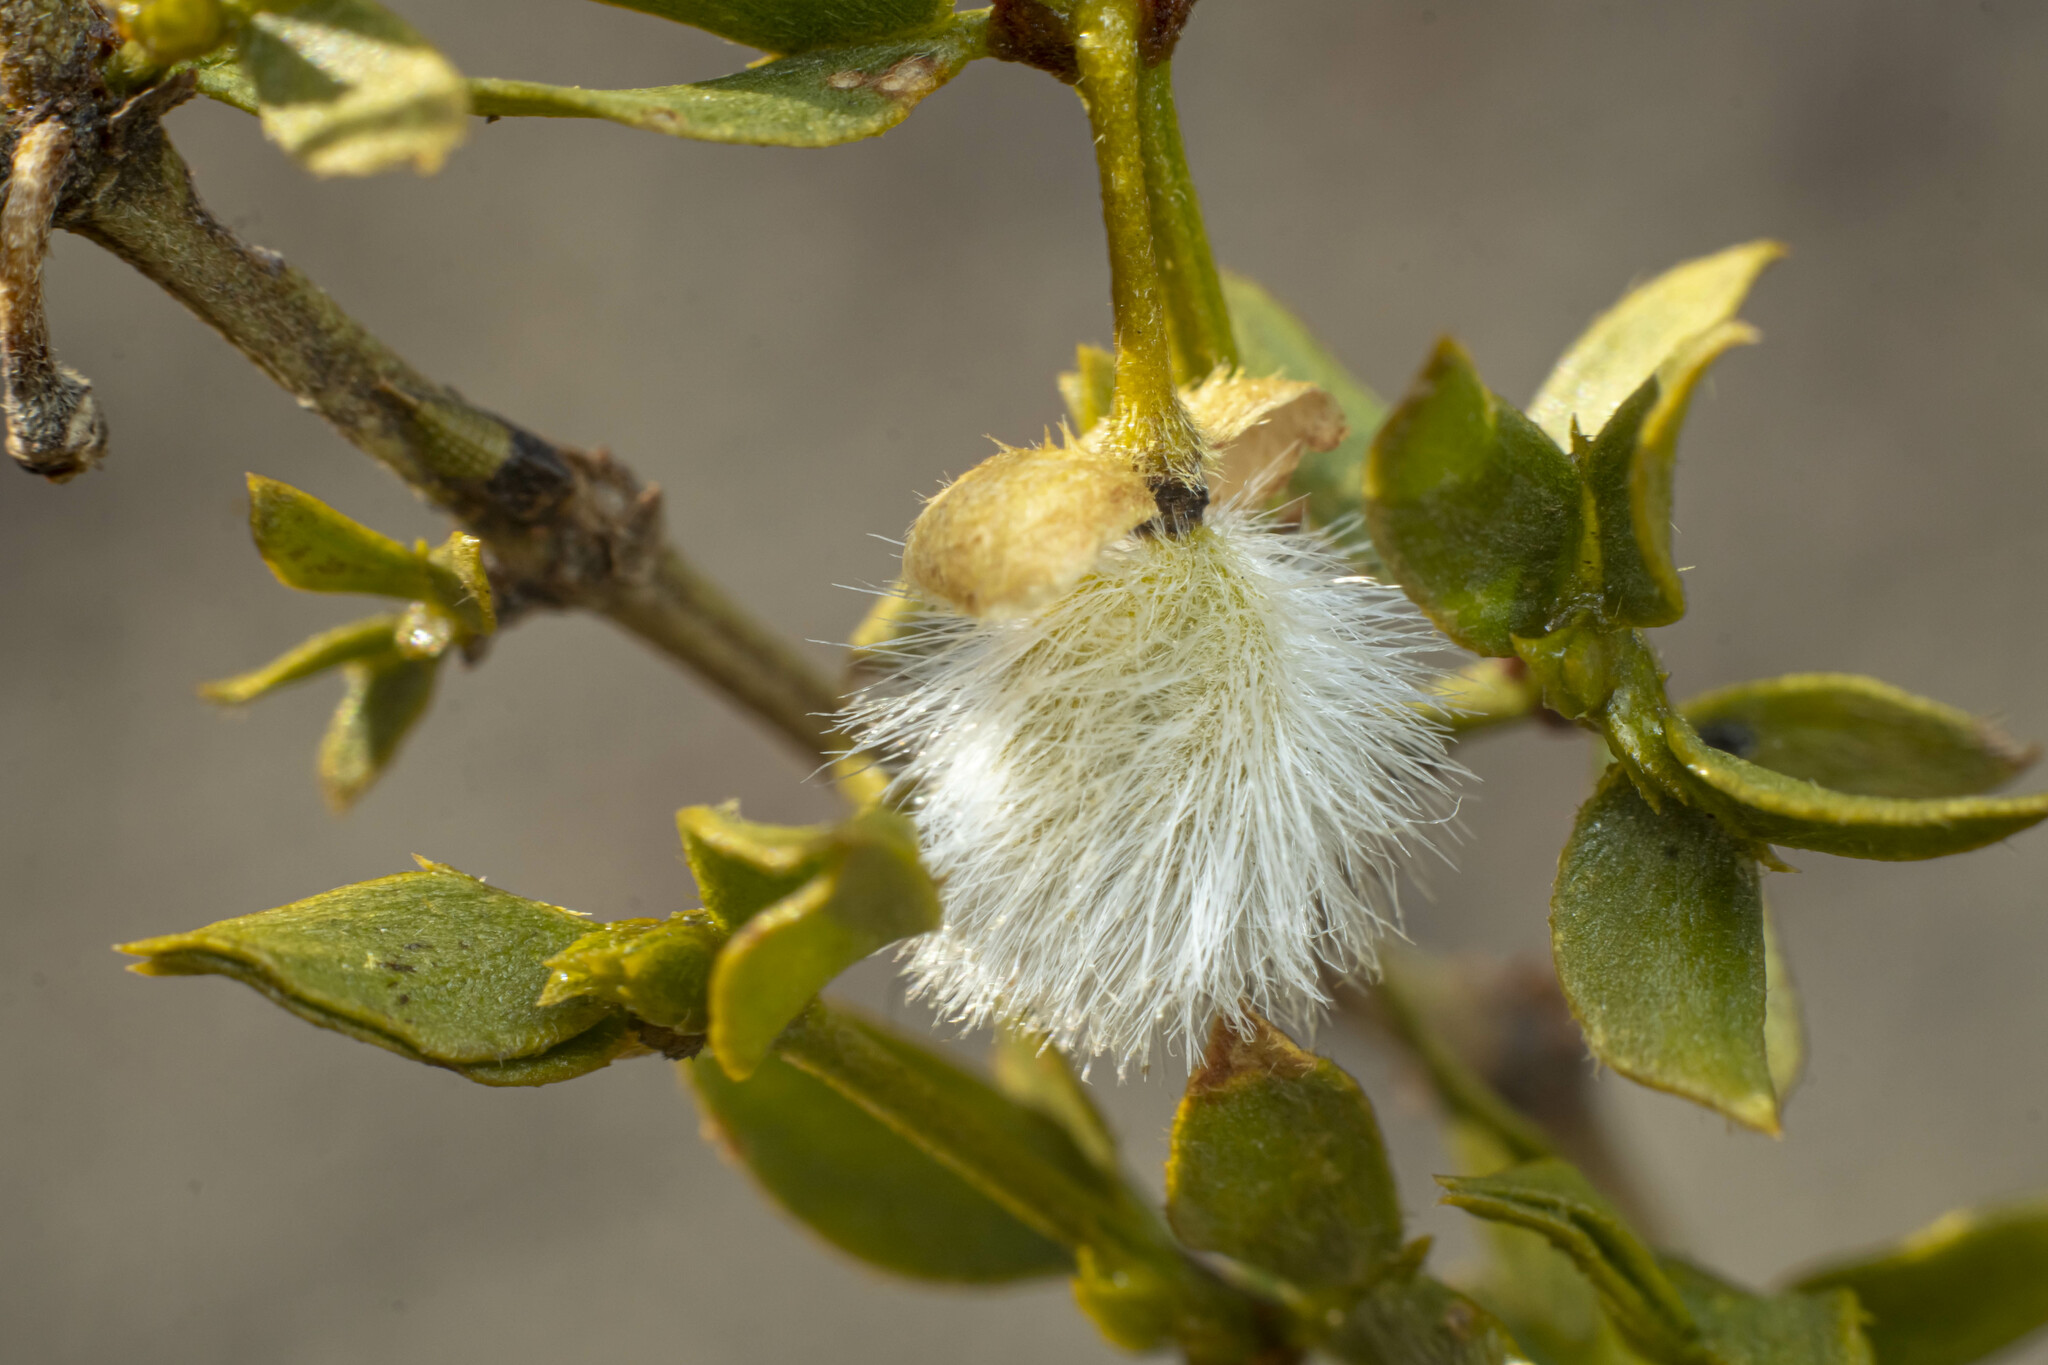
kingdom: Plantae
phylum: Tracheophyta
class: Magnoliopsida
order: Zygophyllales
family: Zygophyllaceae
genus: Larrea
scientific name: Larrea tridentata
